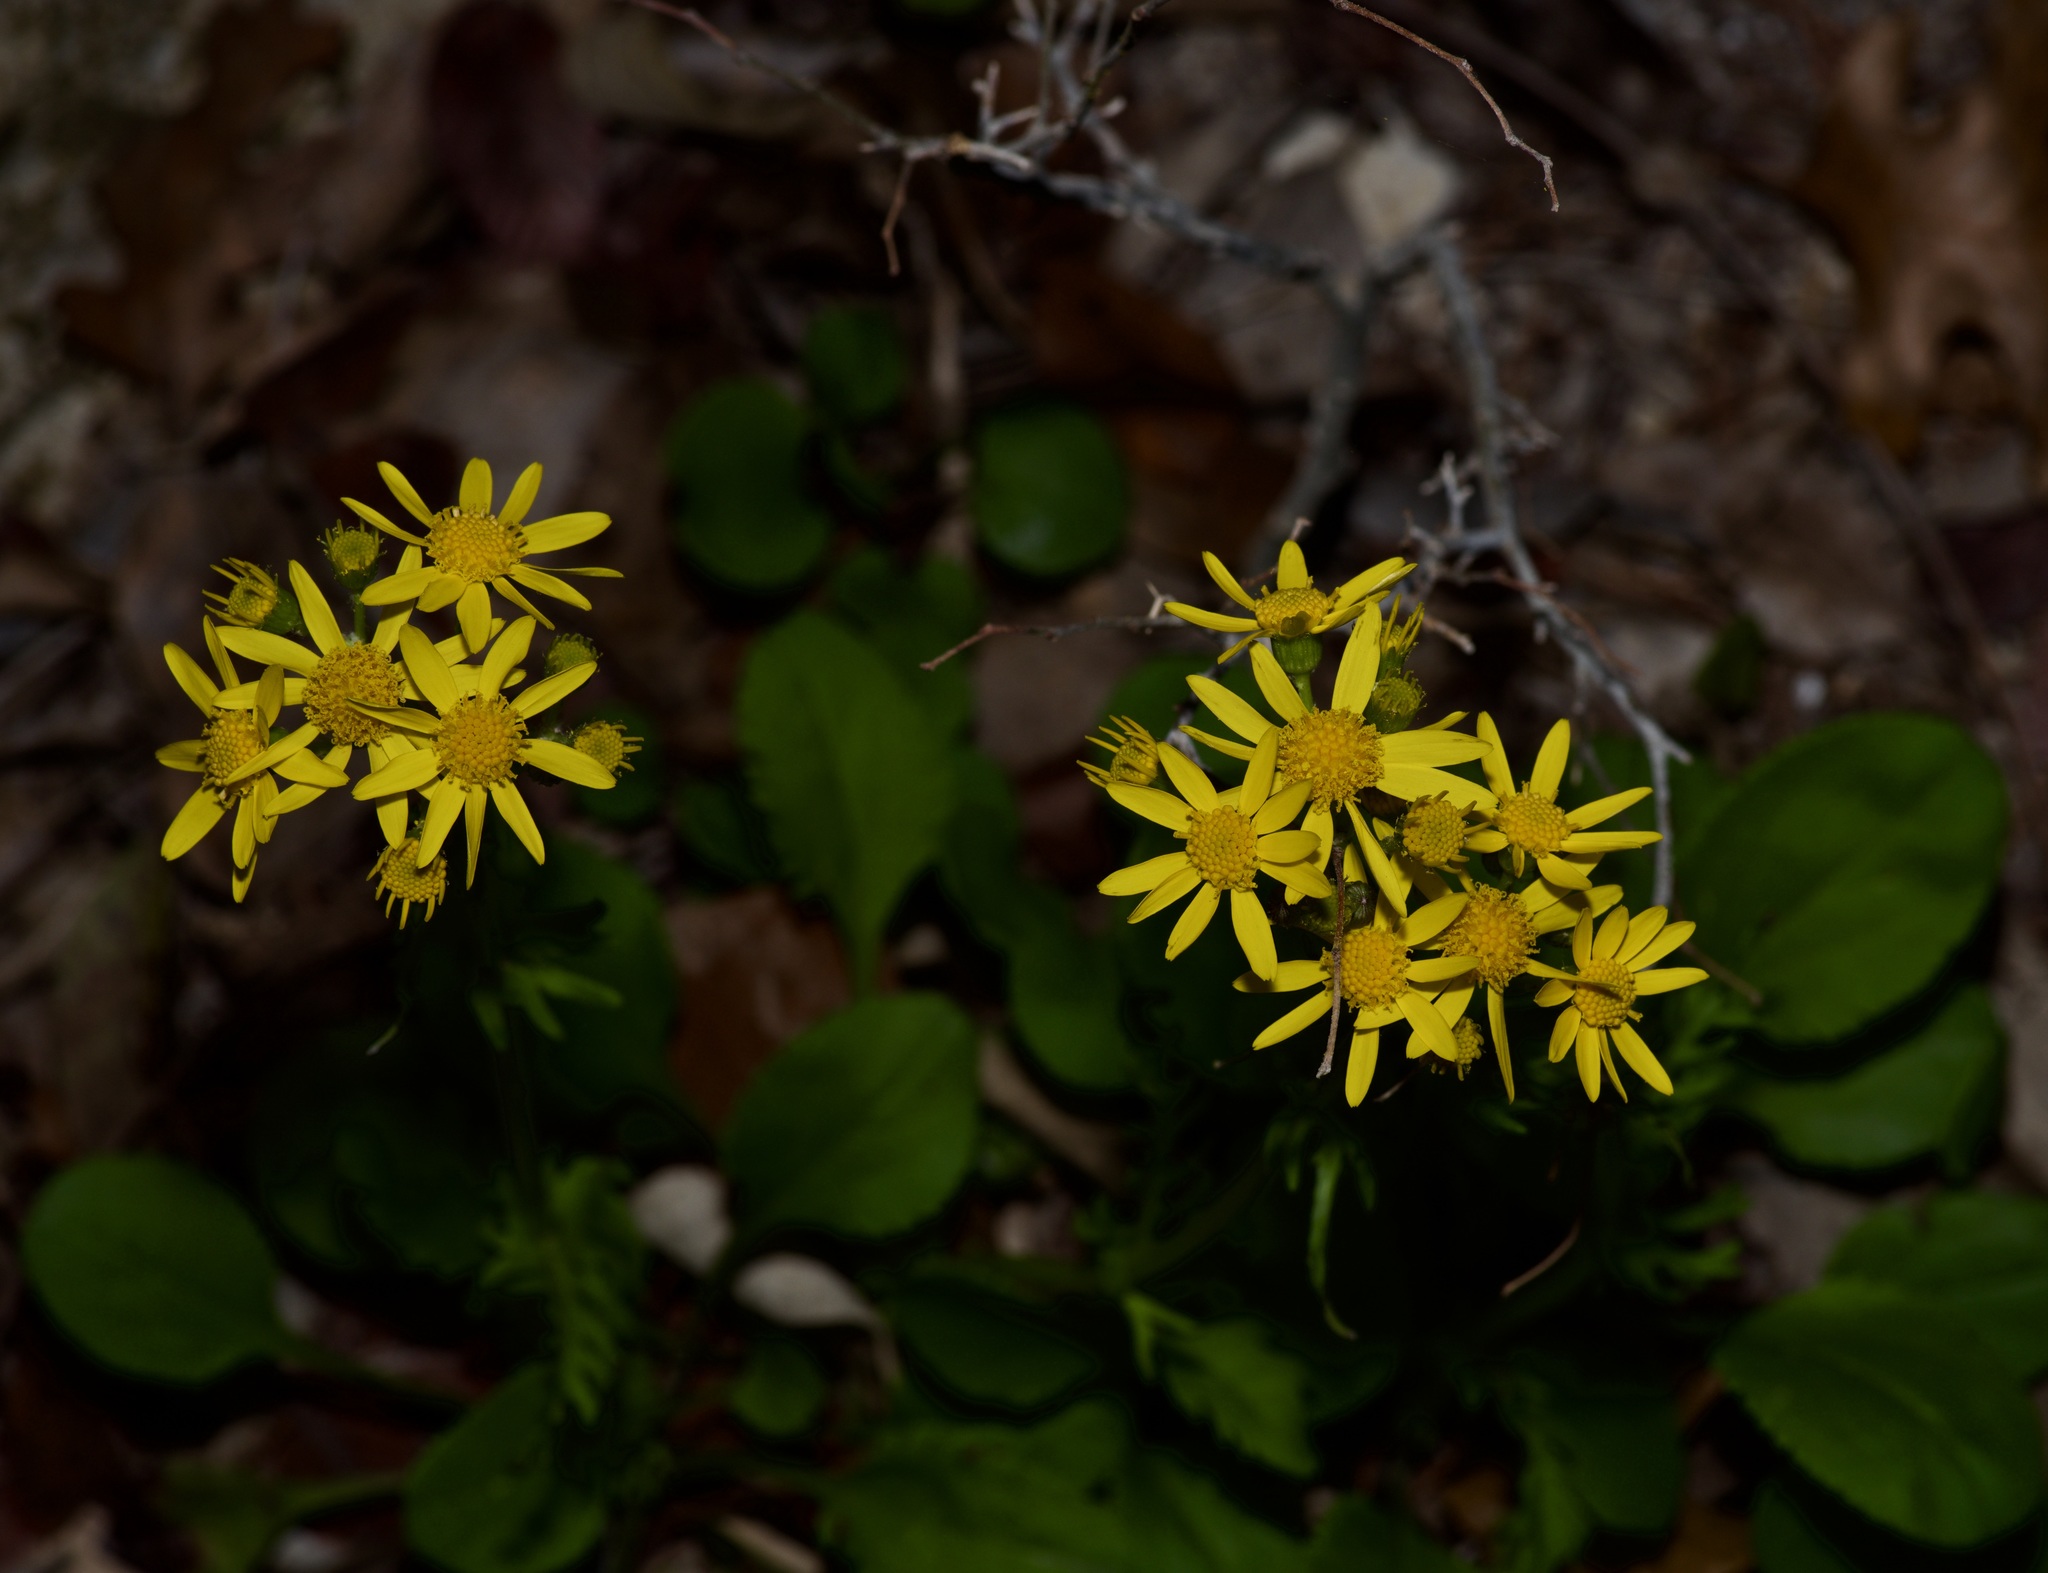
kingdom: Plantae
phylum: Tracheophyta
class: Magnoliopsida
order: Asterales
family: Asteraceae
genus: Packera
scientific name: Packera obovata
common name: Round-leaf ragwort
